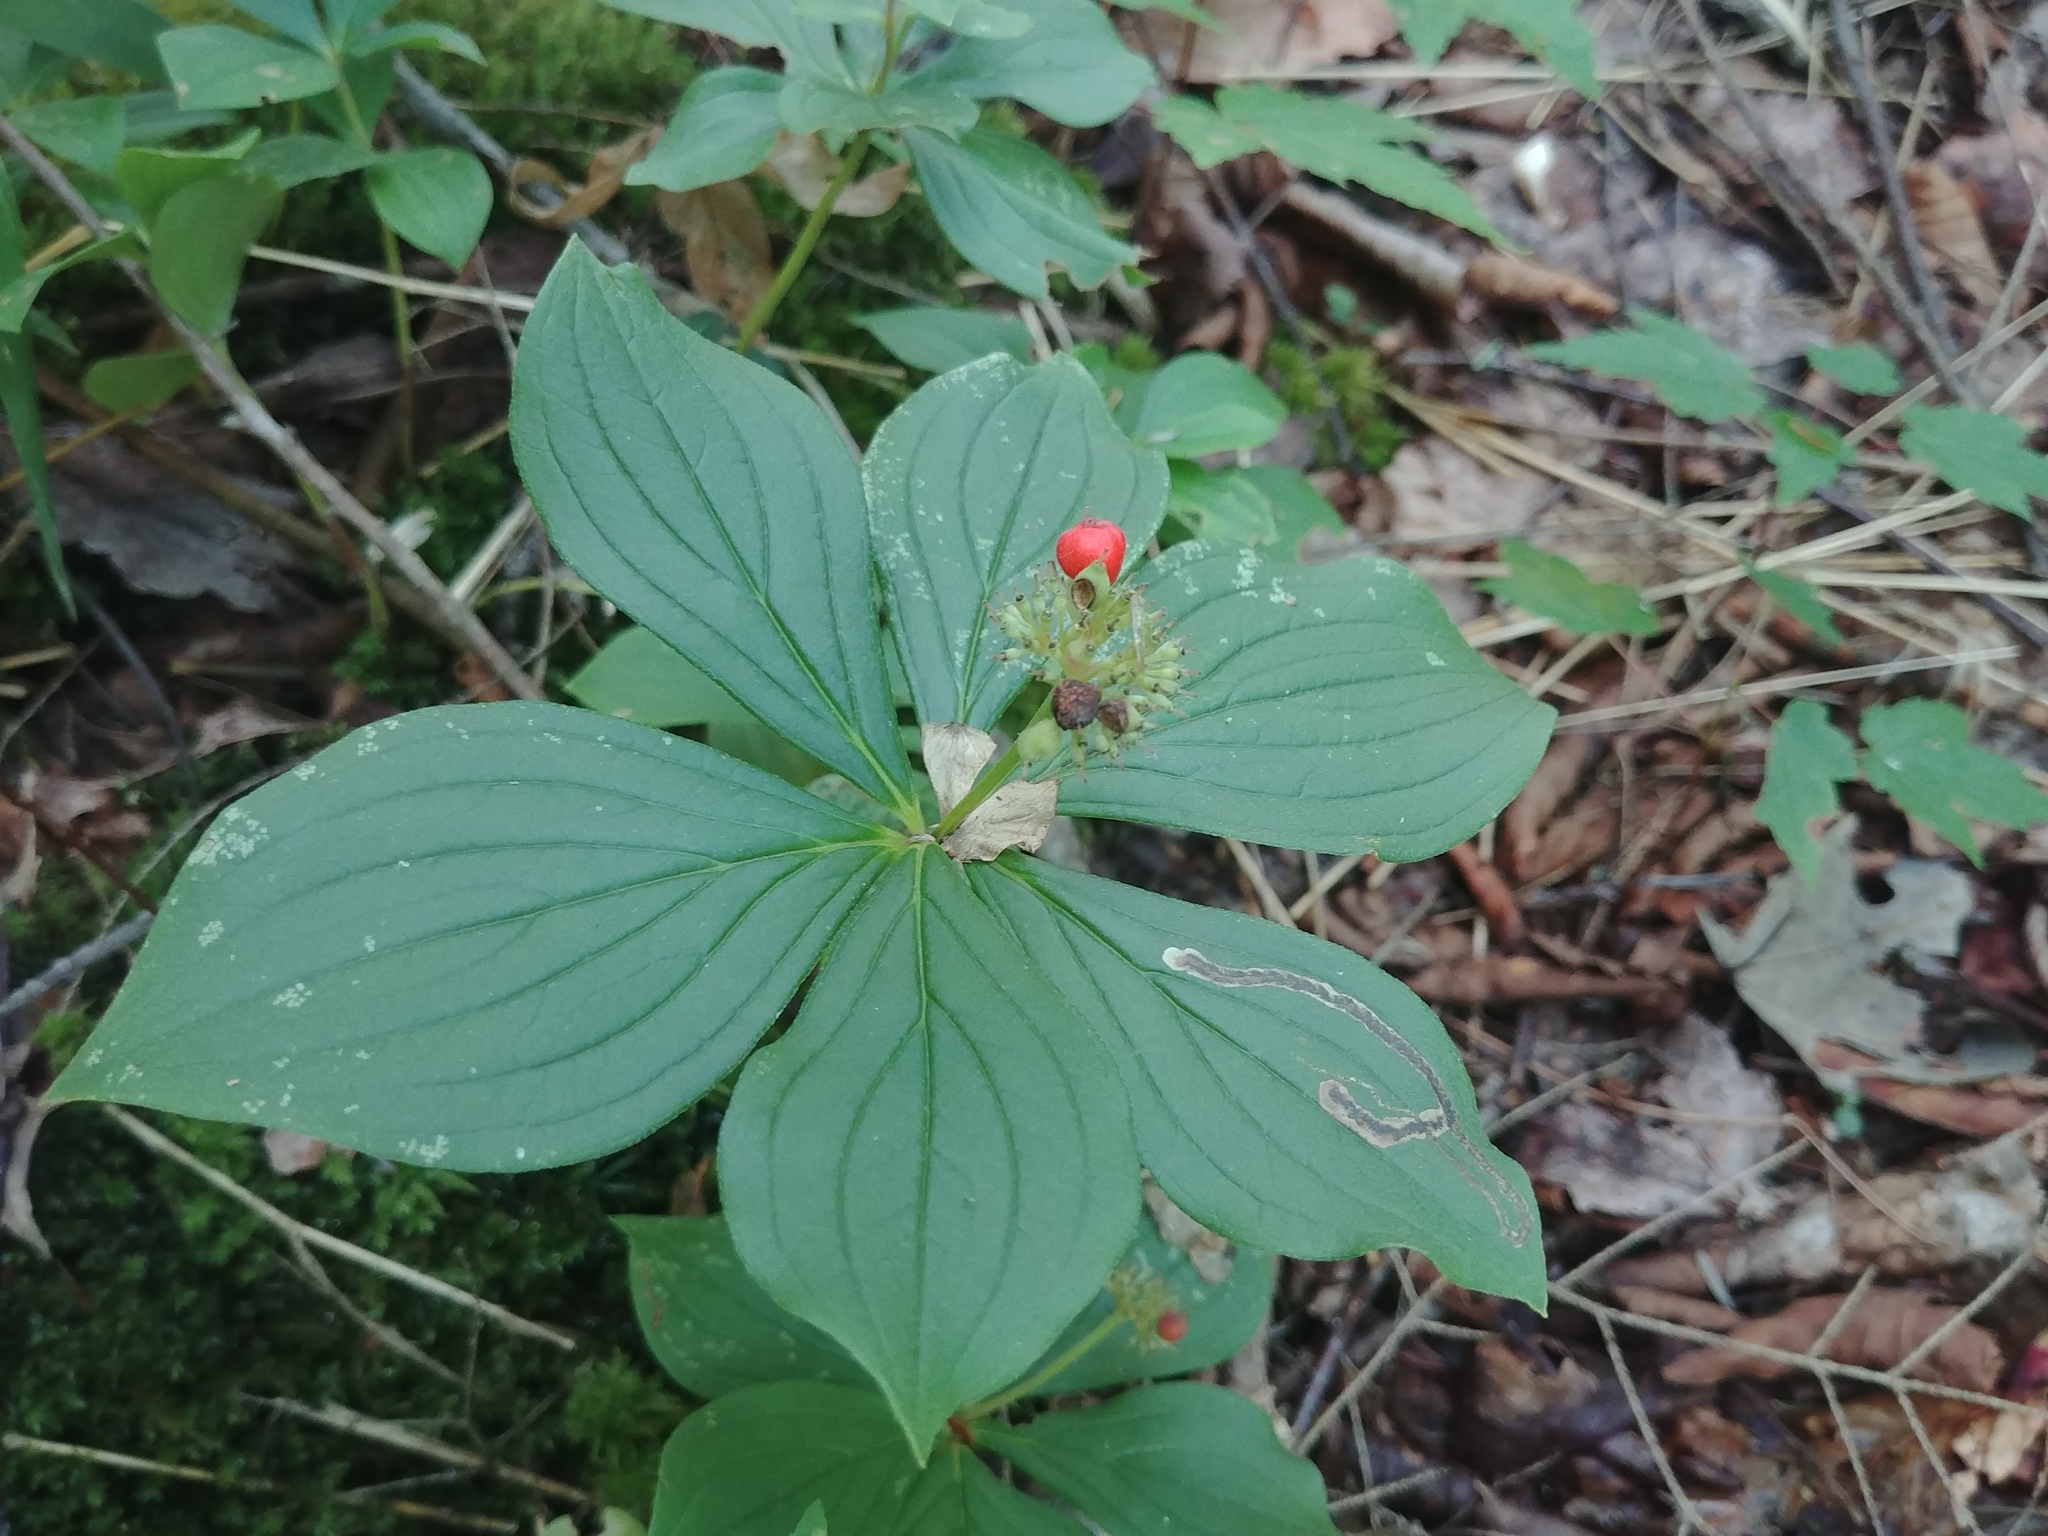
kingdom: Plantae
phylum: Tracheophyta
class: Magnoliopsida
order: Cornales
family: Cornaceae
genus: Cornus
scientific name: Cornus canadensis
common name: Creeping dogwood
